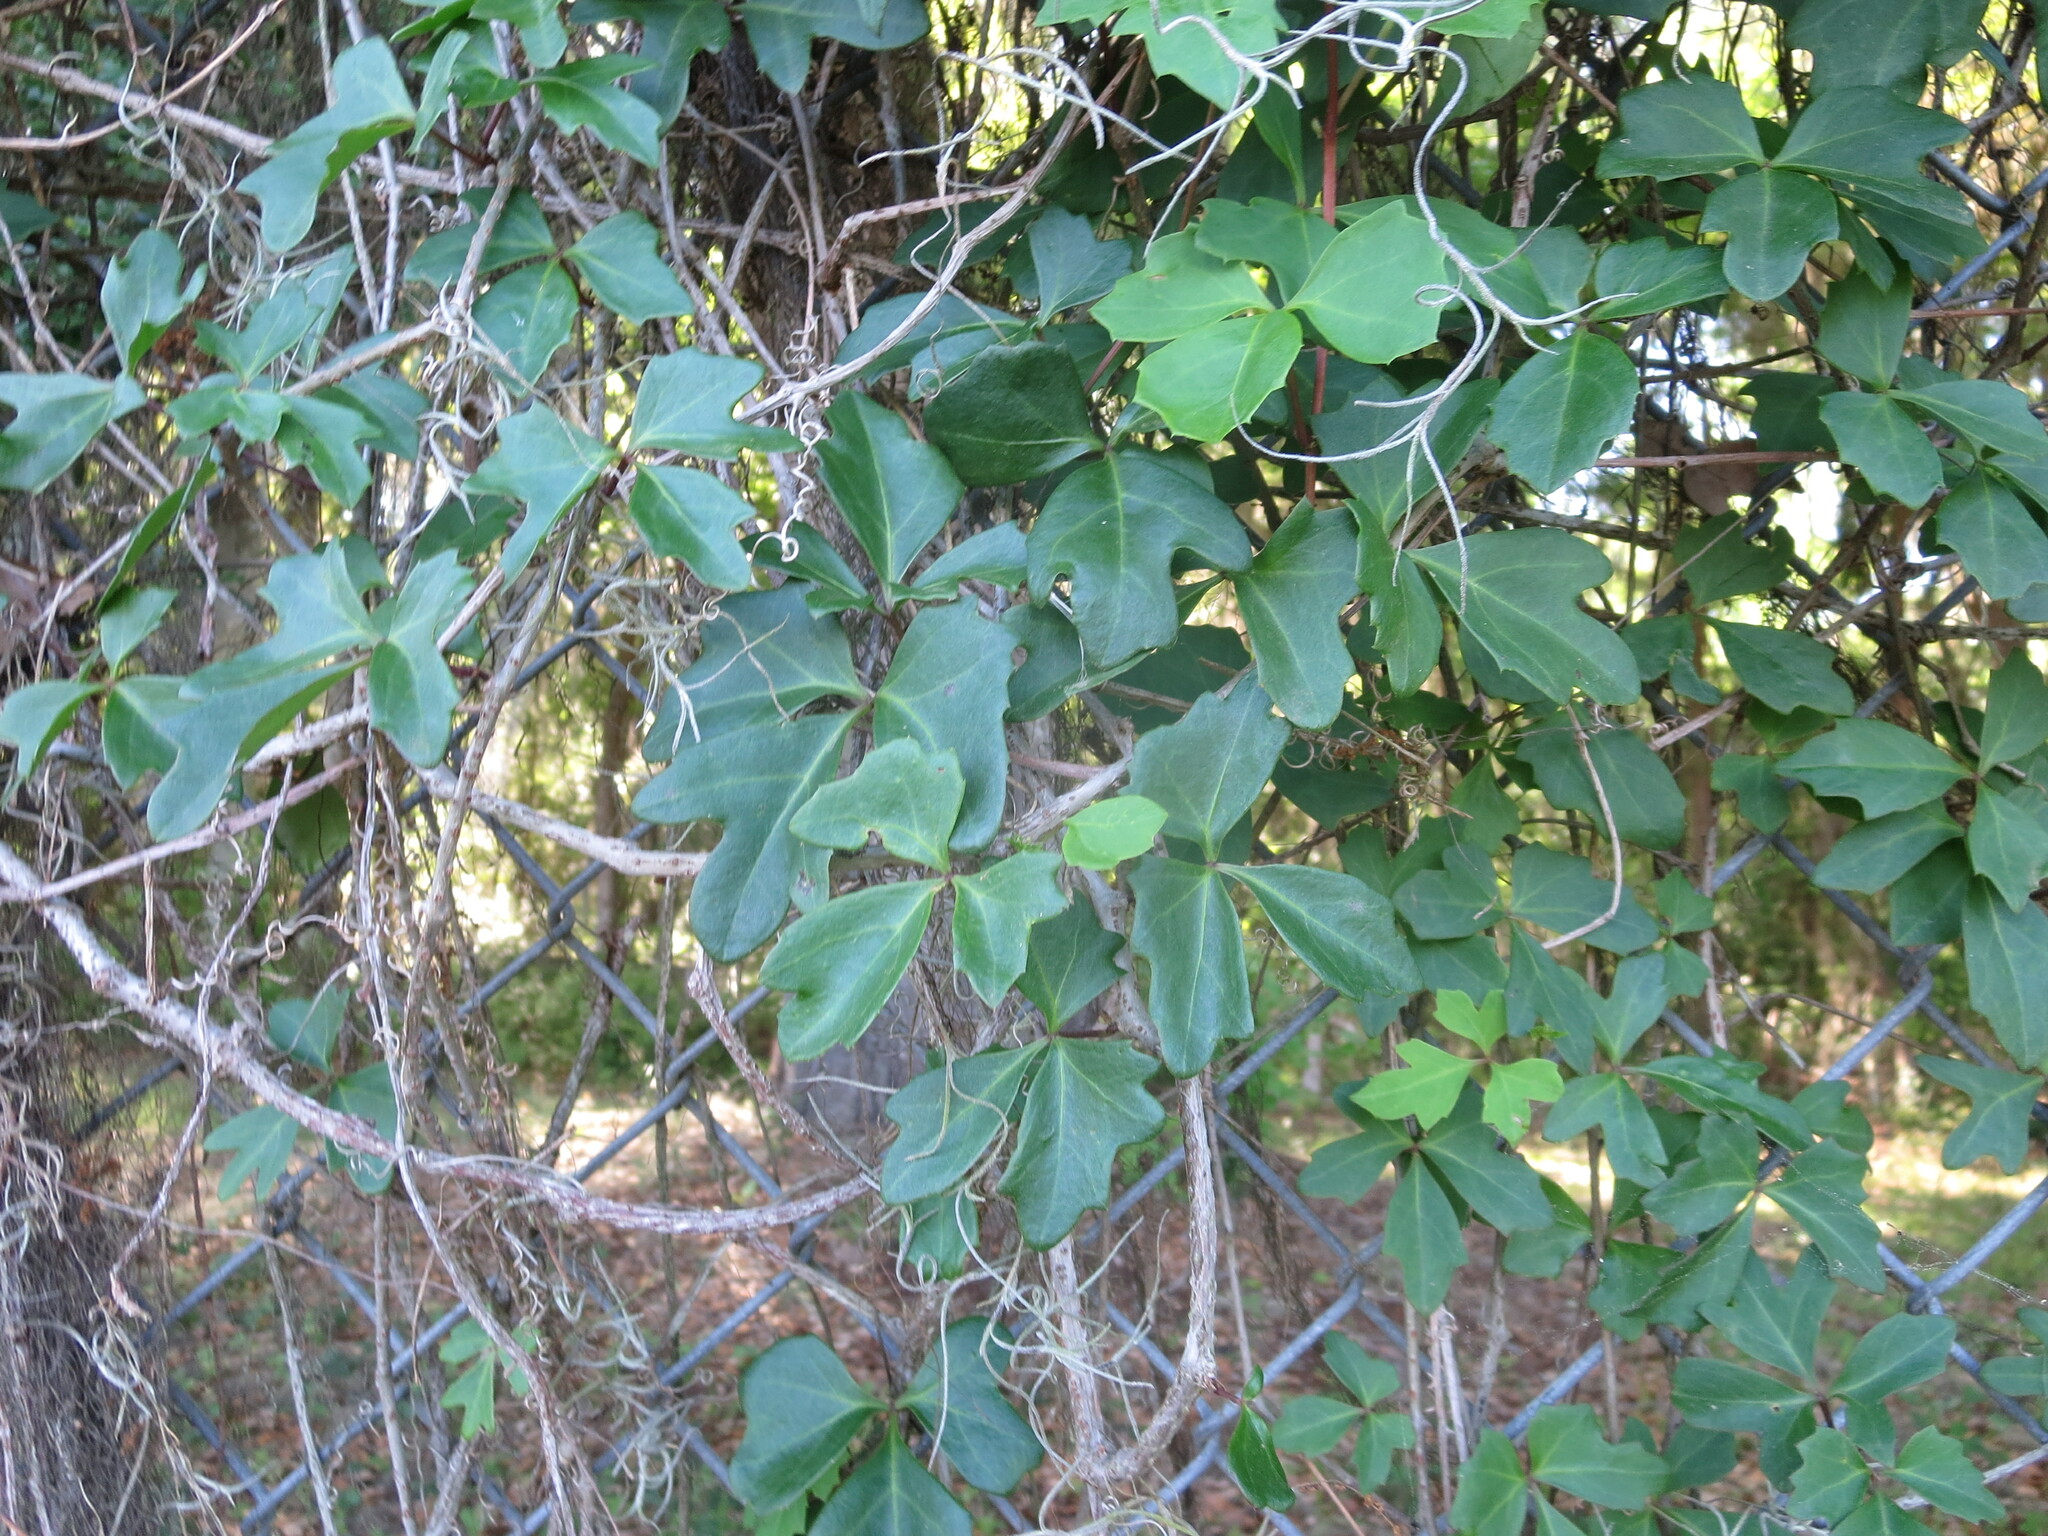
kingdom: Plantae
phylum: Tracheophyta
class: Magnoliopsida
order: Vitales
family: Vitaceae
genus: Cissus
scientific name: Cissus trifoliata
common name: Vine-sorrel
